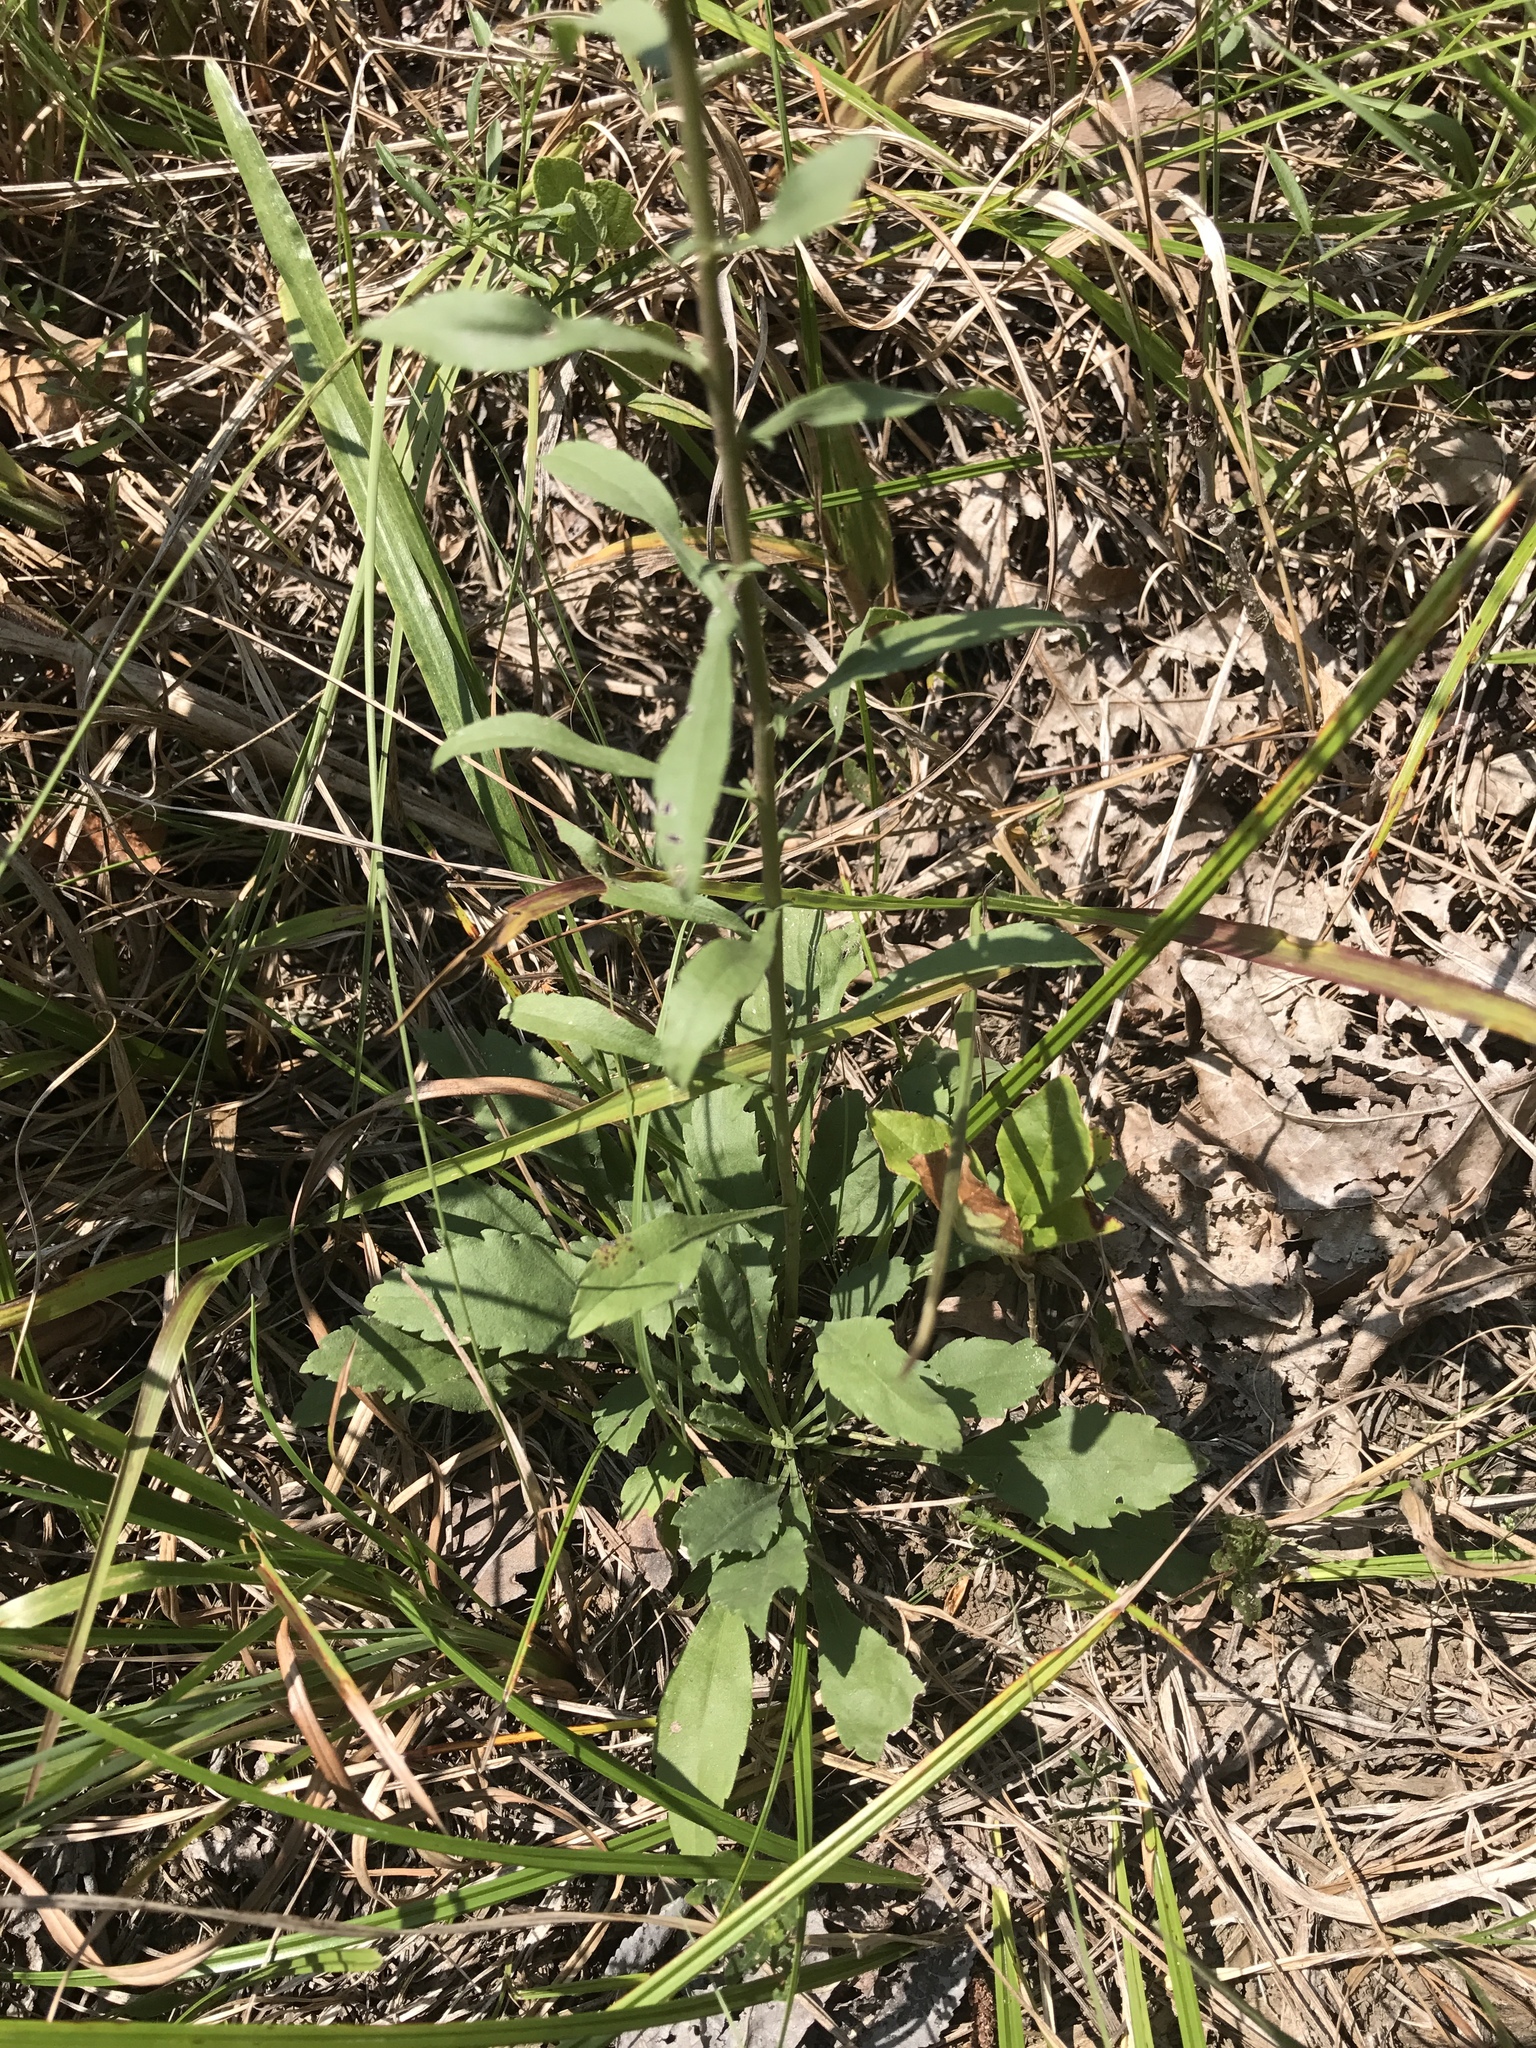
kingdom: Plantae
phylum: Tracheophyta
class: Magnoliopsida
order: Asterales
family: Asteraceae
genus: Solidago
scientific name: Solidago nemoralis
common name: Grey goldenrod
